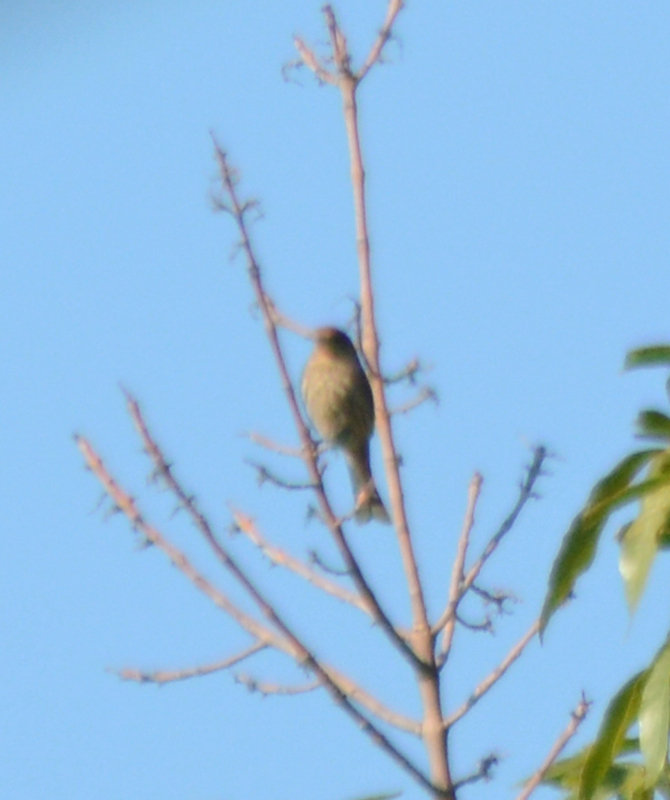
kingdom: Animalia
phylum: Chordata
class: Aves
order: Passeriformes
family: Fringillidae
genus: Haemorhous
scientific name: Haemorhous mexicanus
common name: House finch
